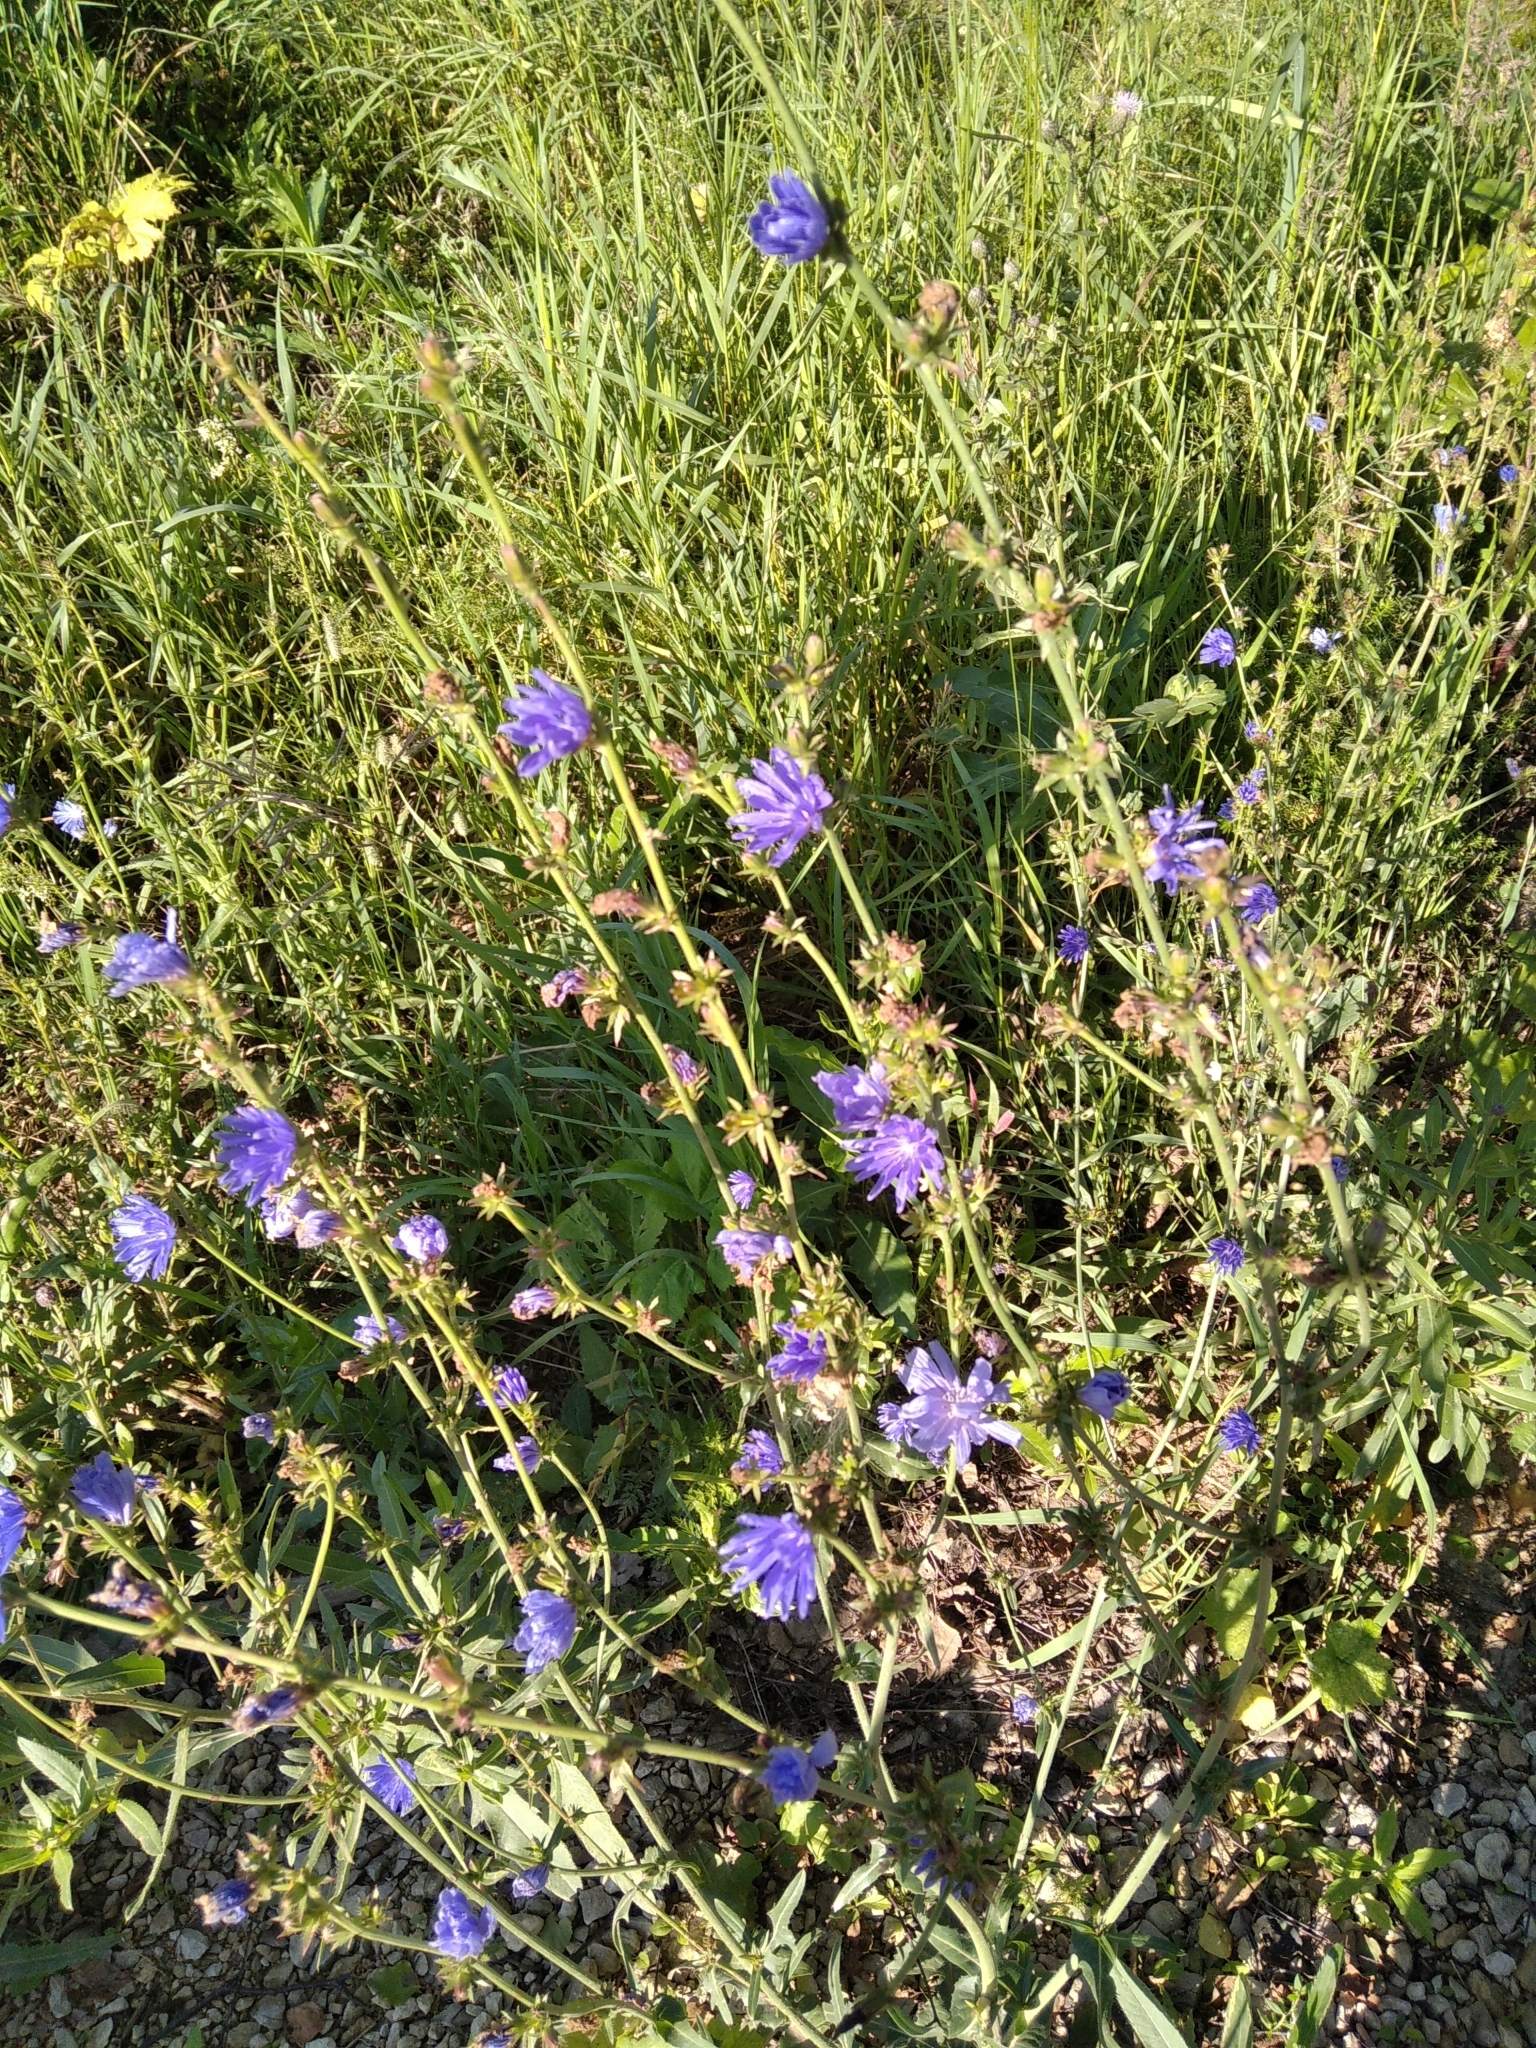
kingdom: Plantae
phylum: Tracheophyta
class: Magnoliopsida
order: Asterales
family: Asteraceae
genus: Cichorium
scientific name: Cichorium intybus
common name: Chicory
